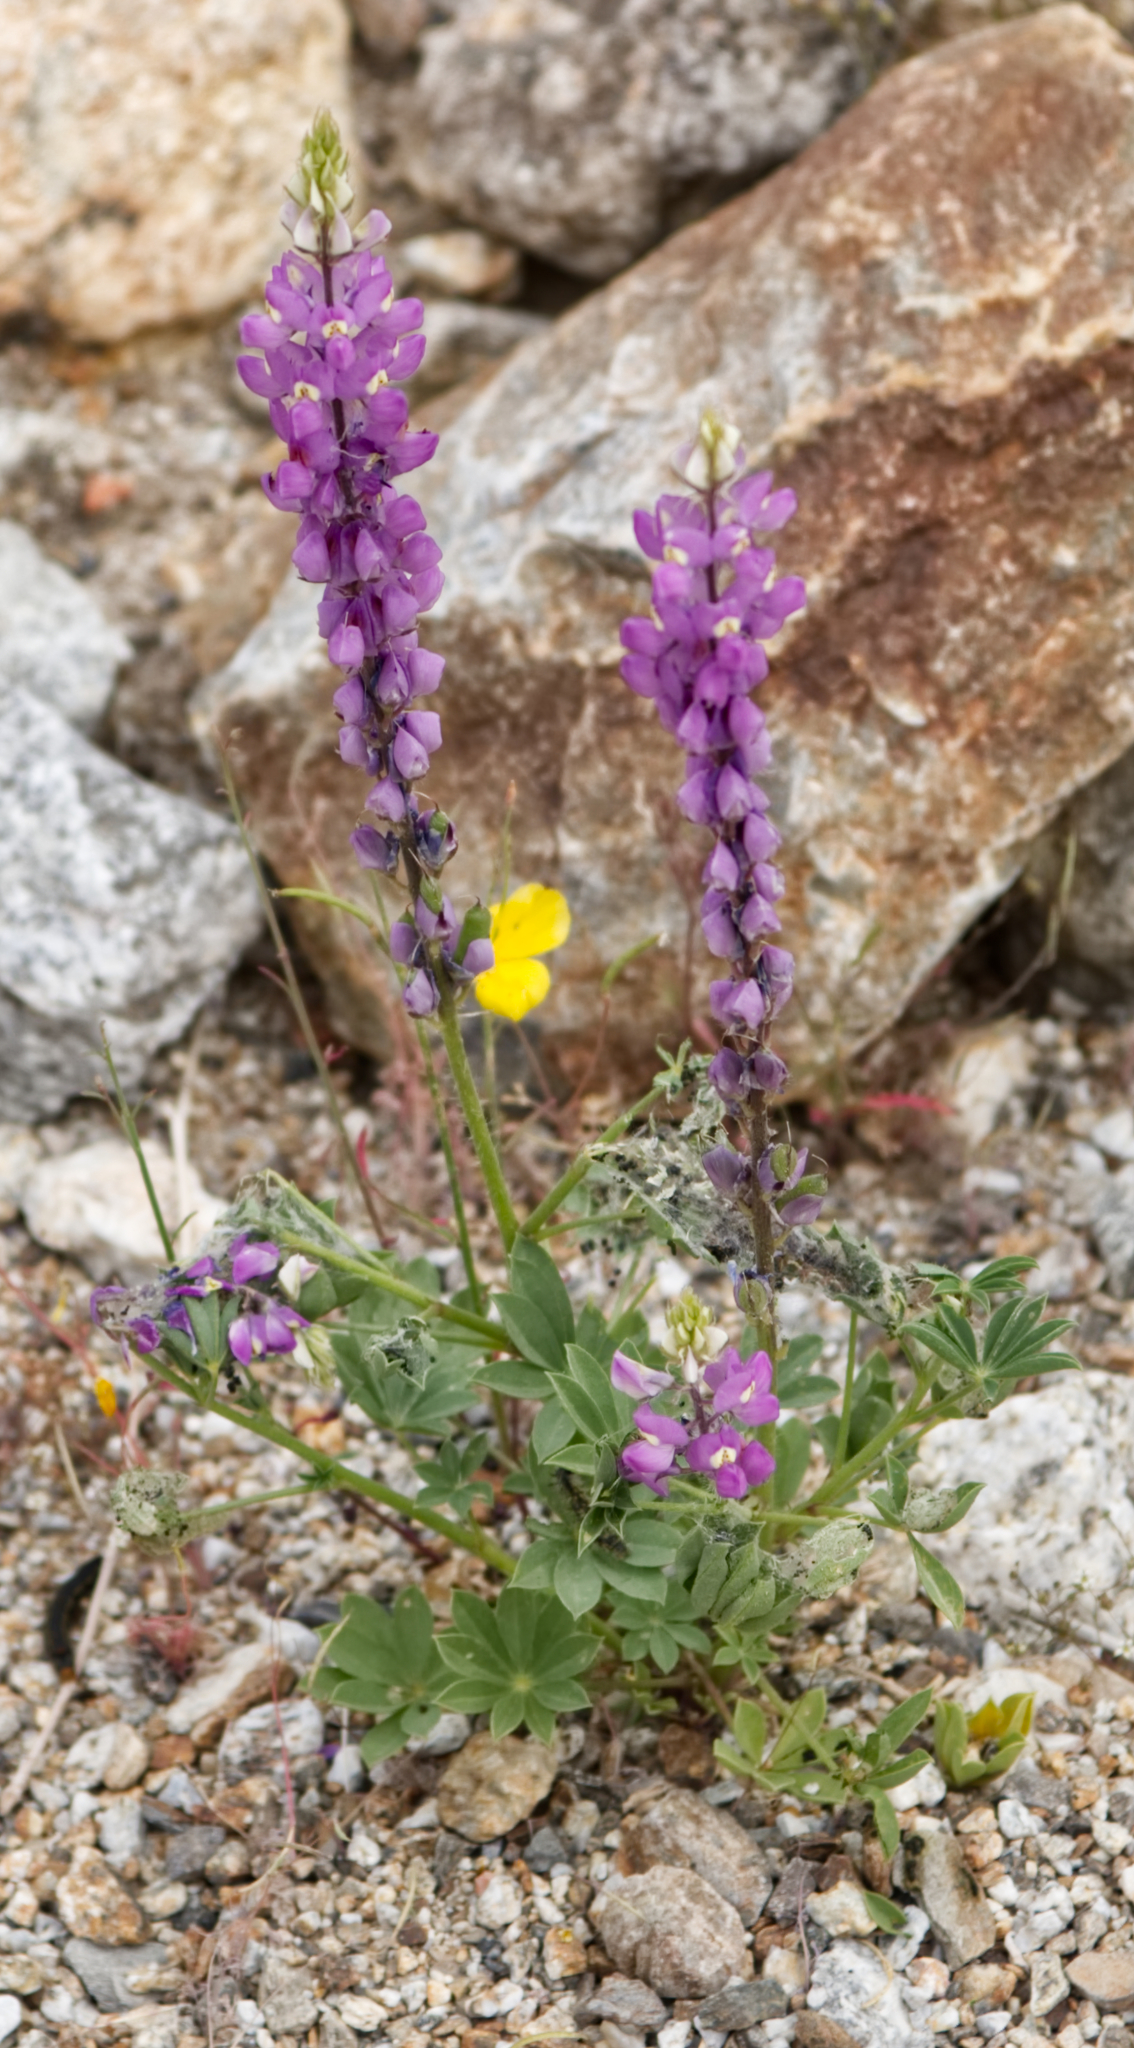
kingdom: Plantae
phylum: Tracheophyta
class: Magnoliopsida
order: Fabales
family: Fabaceae
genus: Lupinus
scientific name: Lupinus arizonicus
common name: Arizona lupine
